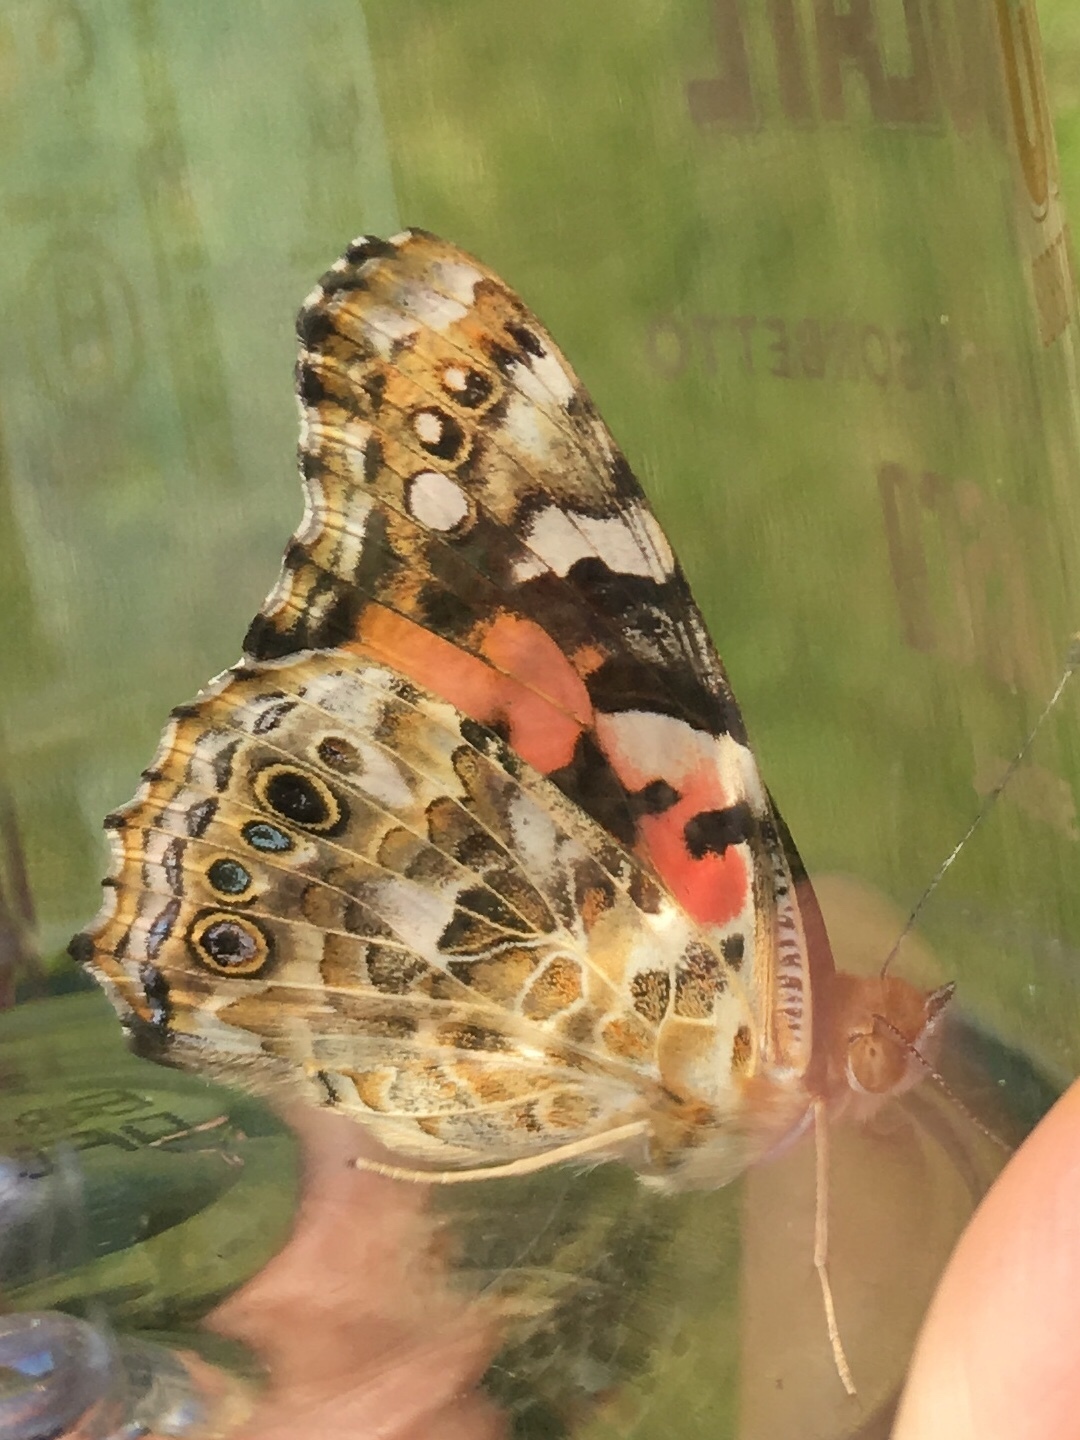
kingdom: Animalia
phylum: Arthropoda
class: Insecta
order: Lepidoptera
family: Nymphalidae
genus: Vanessa
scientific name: Vanessa cardui
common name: Painted lady
